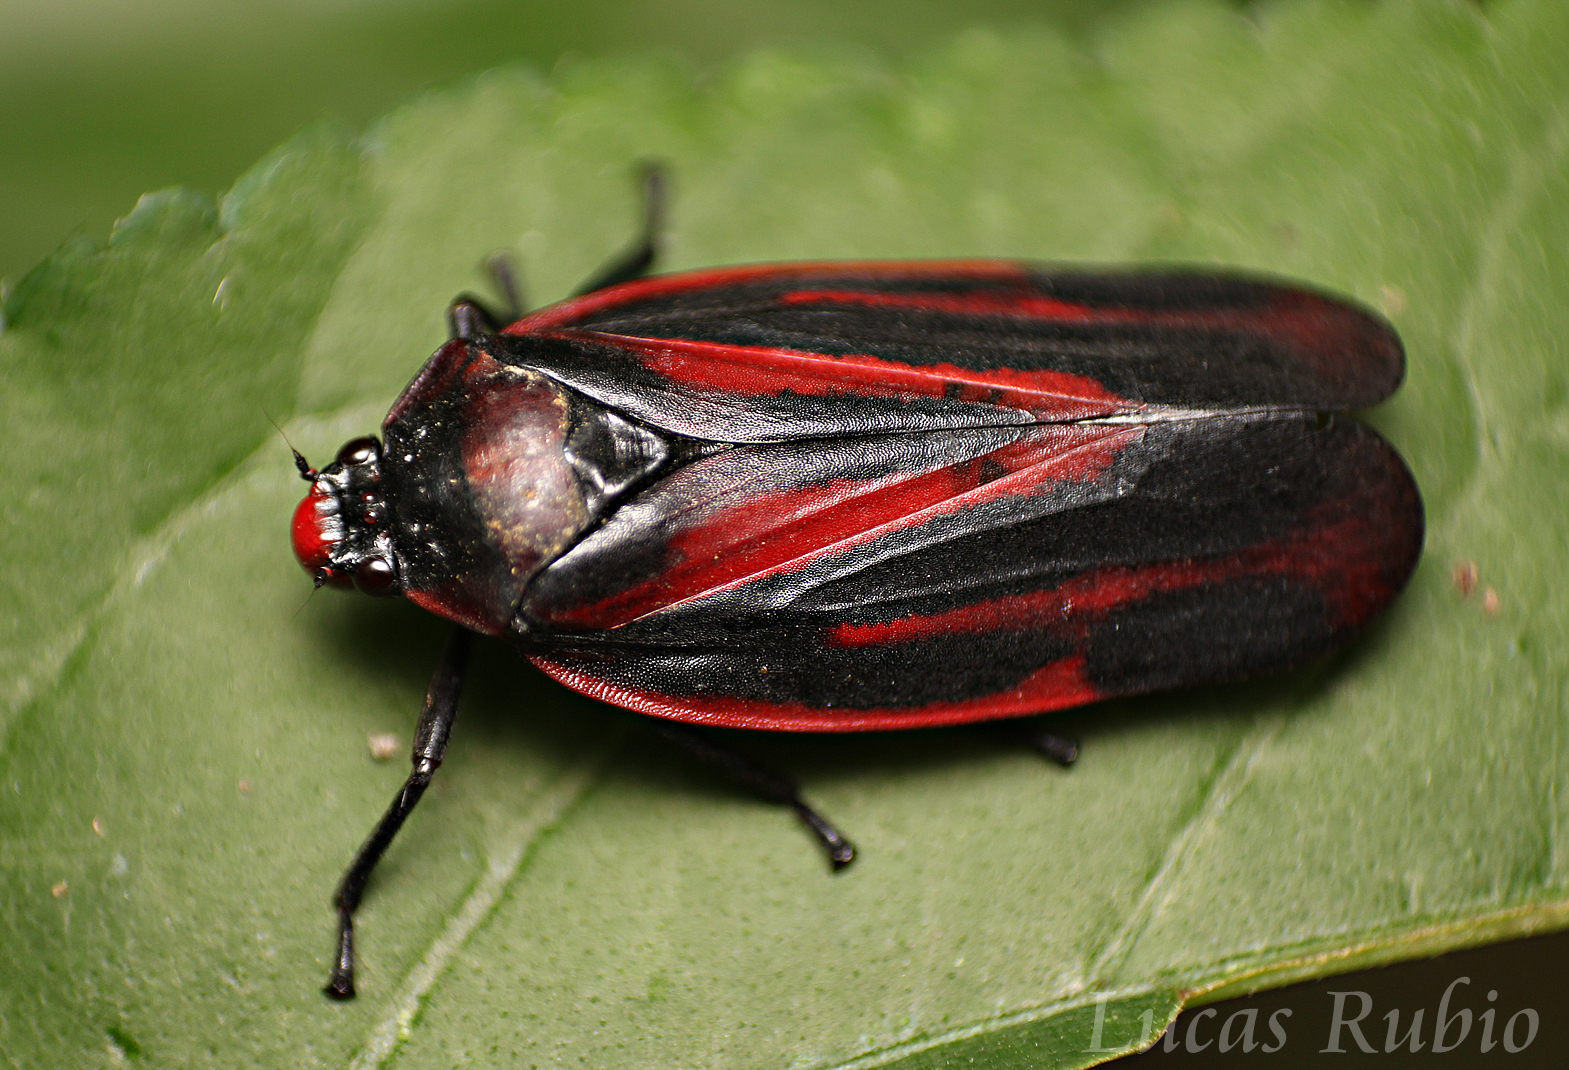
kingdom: Animalia
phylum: Arthropoda
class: Insecta
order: Hemiptera
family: Cercopidae
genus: Tomaspis
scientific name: Tomaspis furcata
